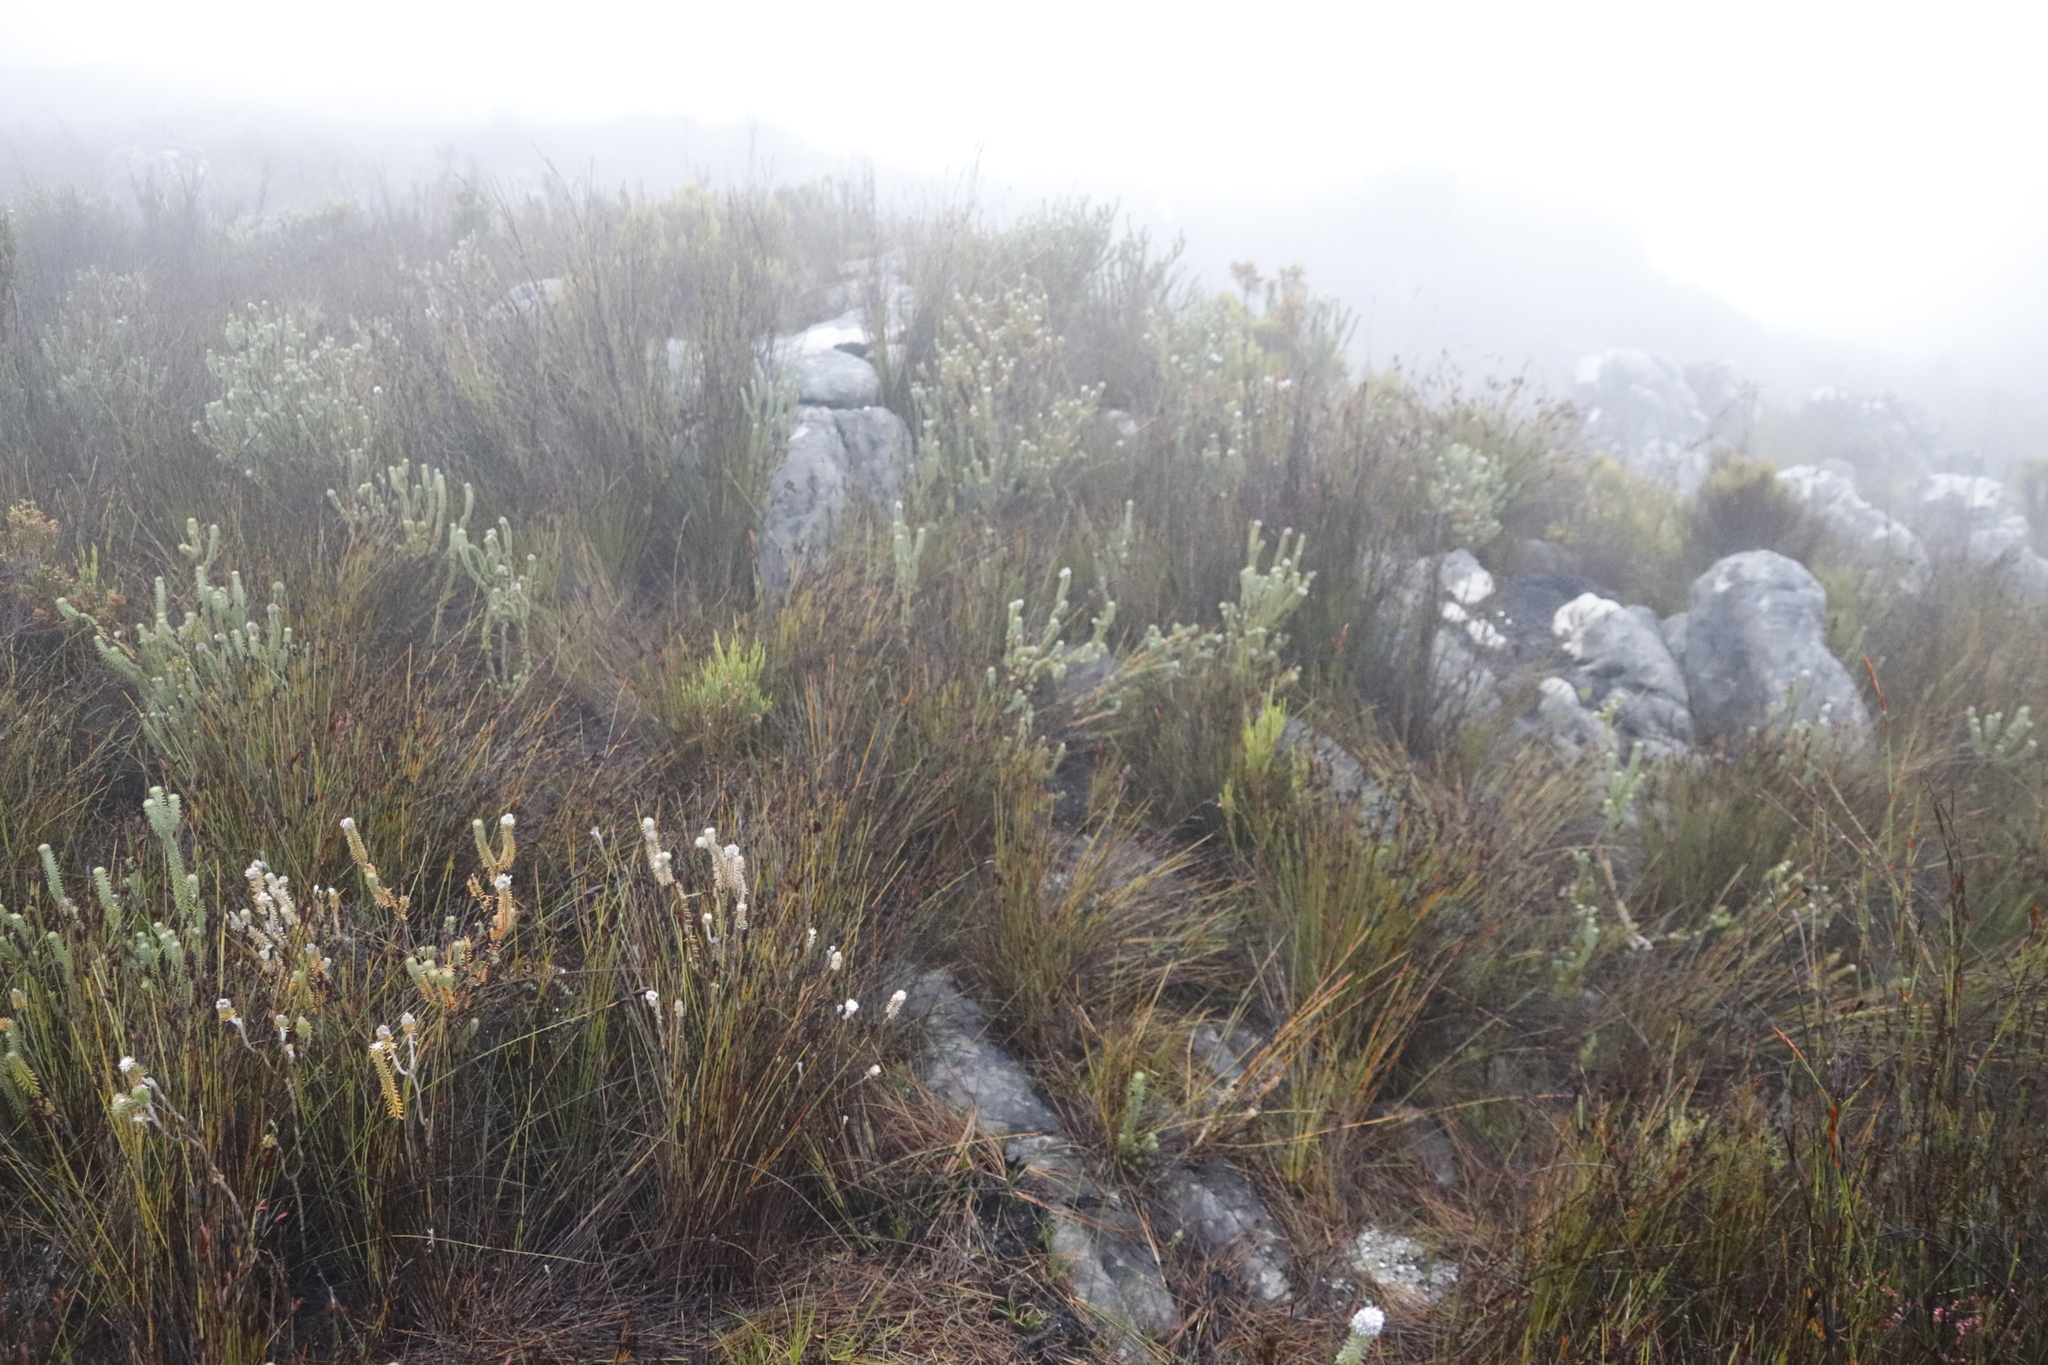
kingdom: Plantae
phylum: Tracheophyta
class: Magnoliopsida
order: Lamiales
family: Stilbaceae
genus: Kogelbergia
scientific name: Kogelbergia verticillata
